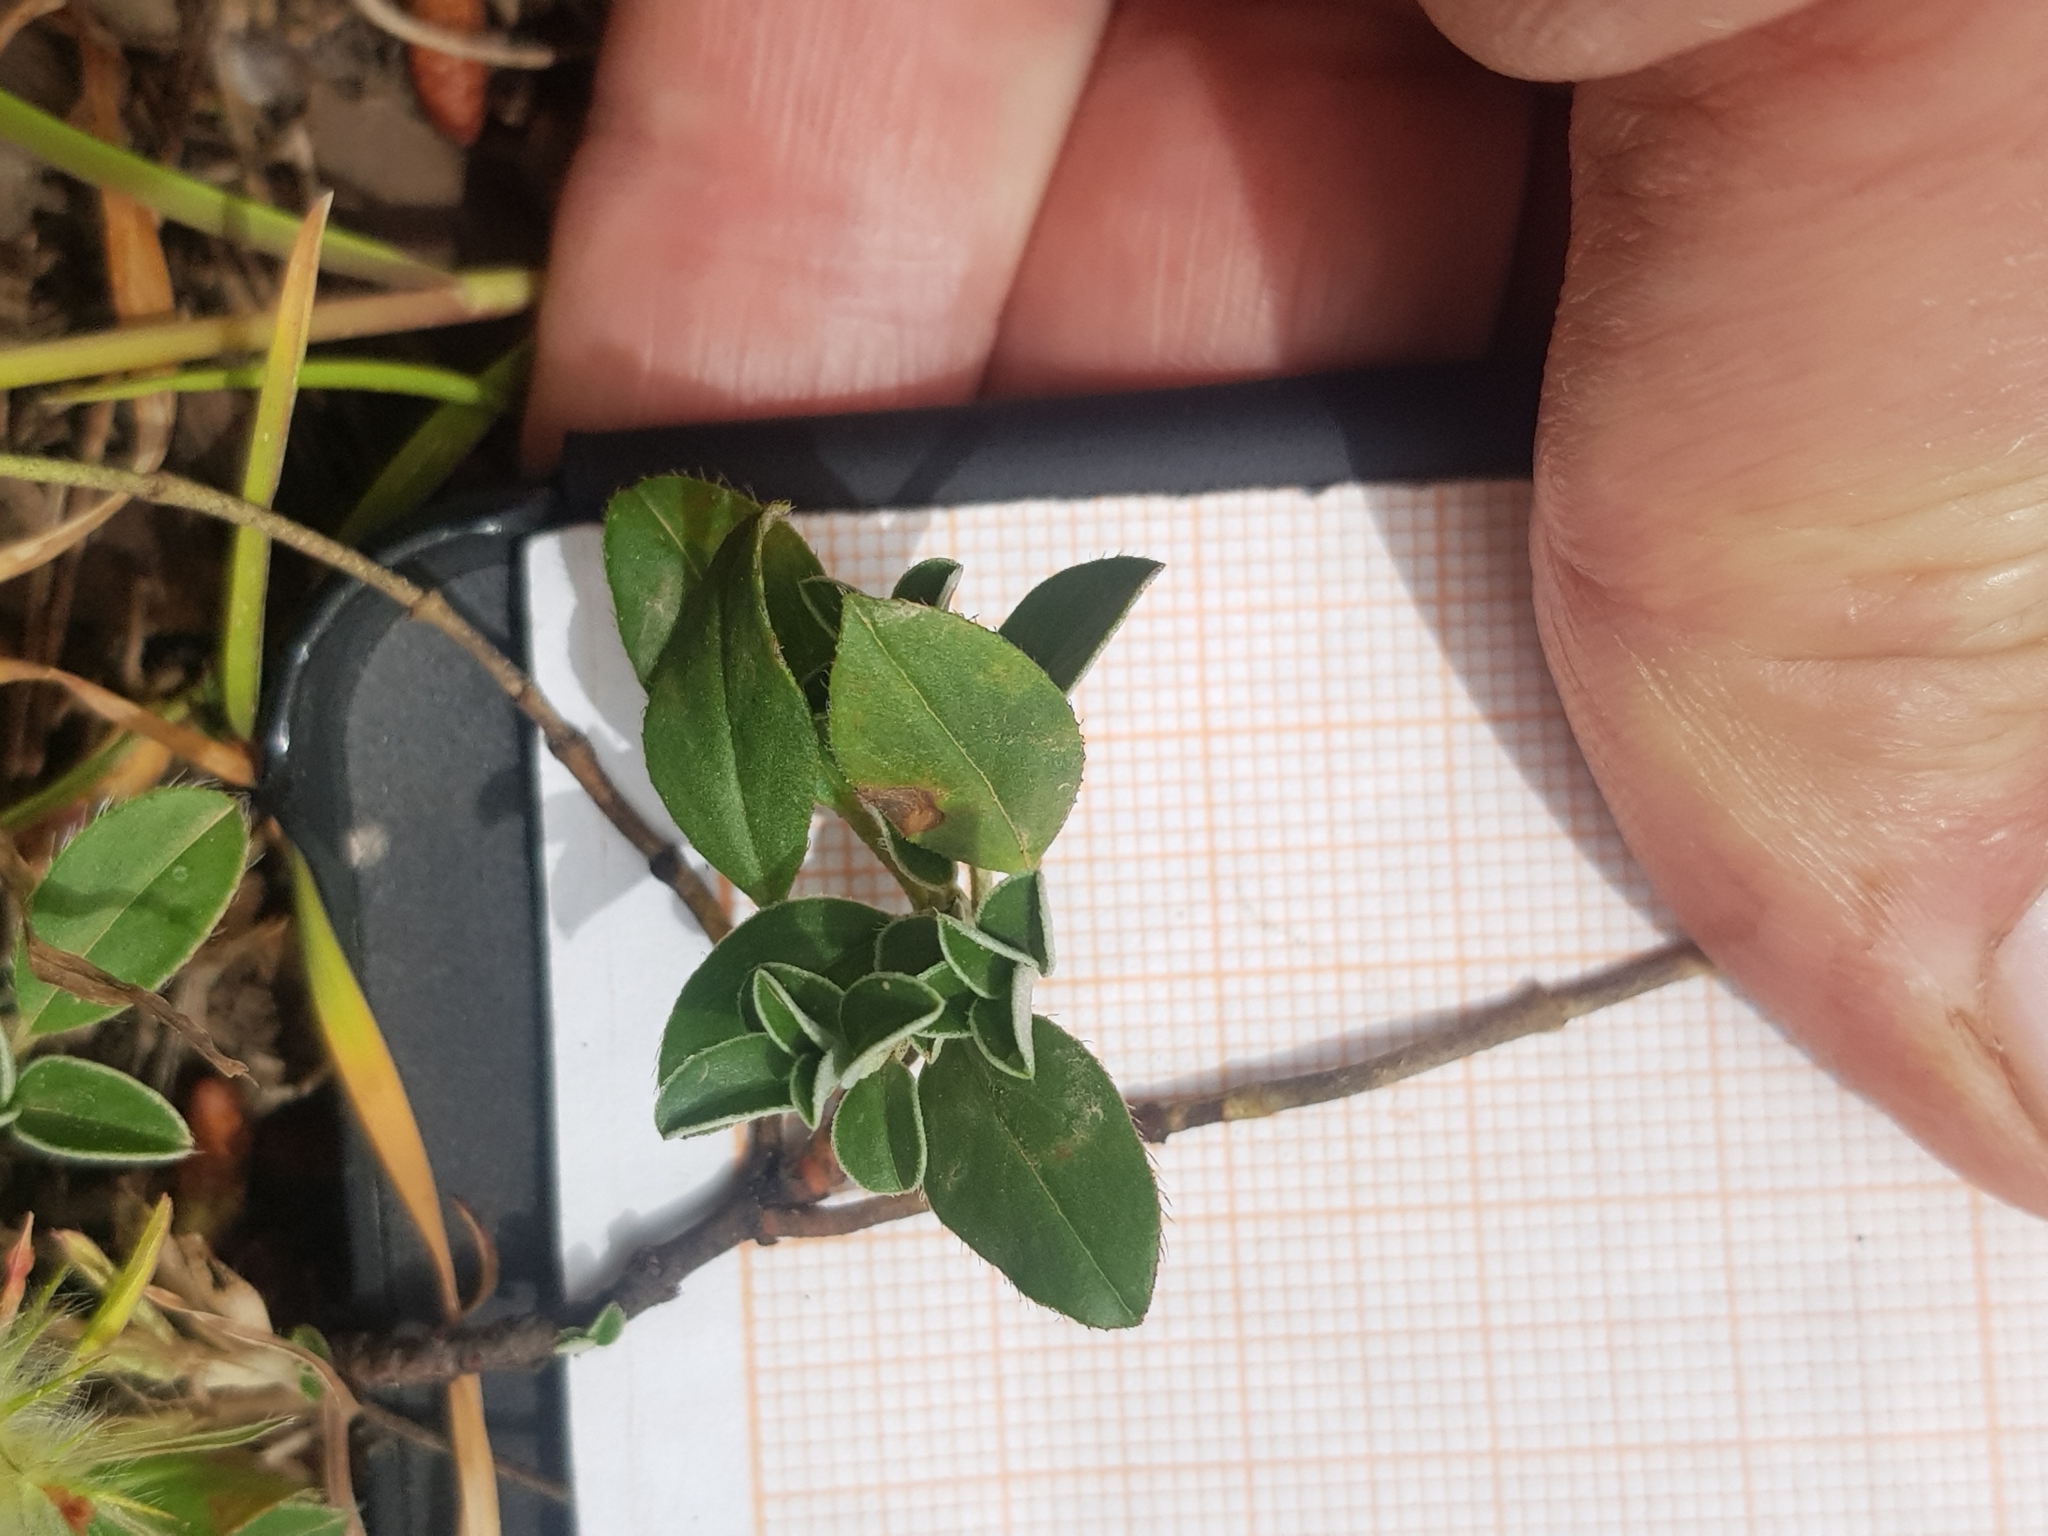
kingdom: Plantae
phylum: Tracheophyta
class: Magnoliopsida
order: Malvales
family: Cistaceae
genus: Helianthemum
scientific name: Helianthemum cinereum
